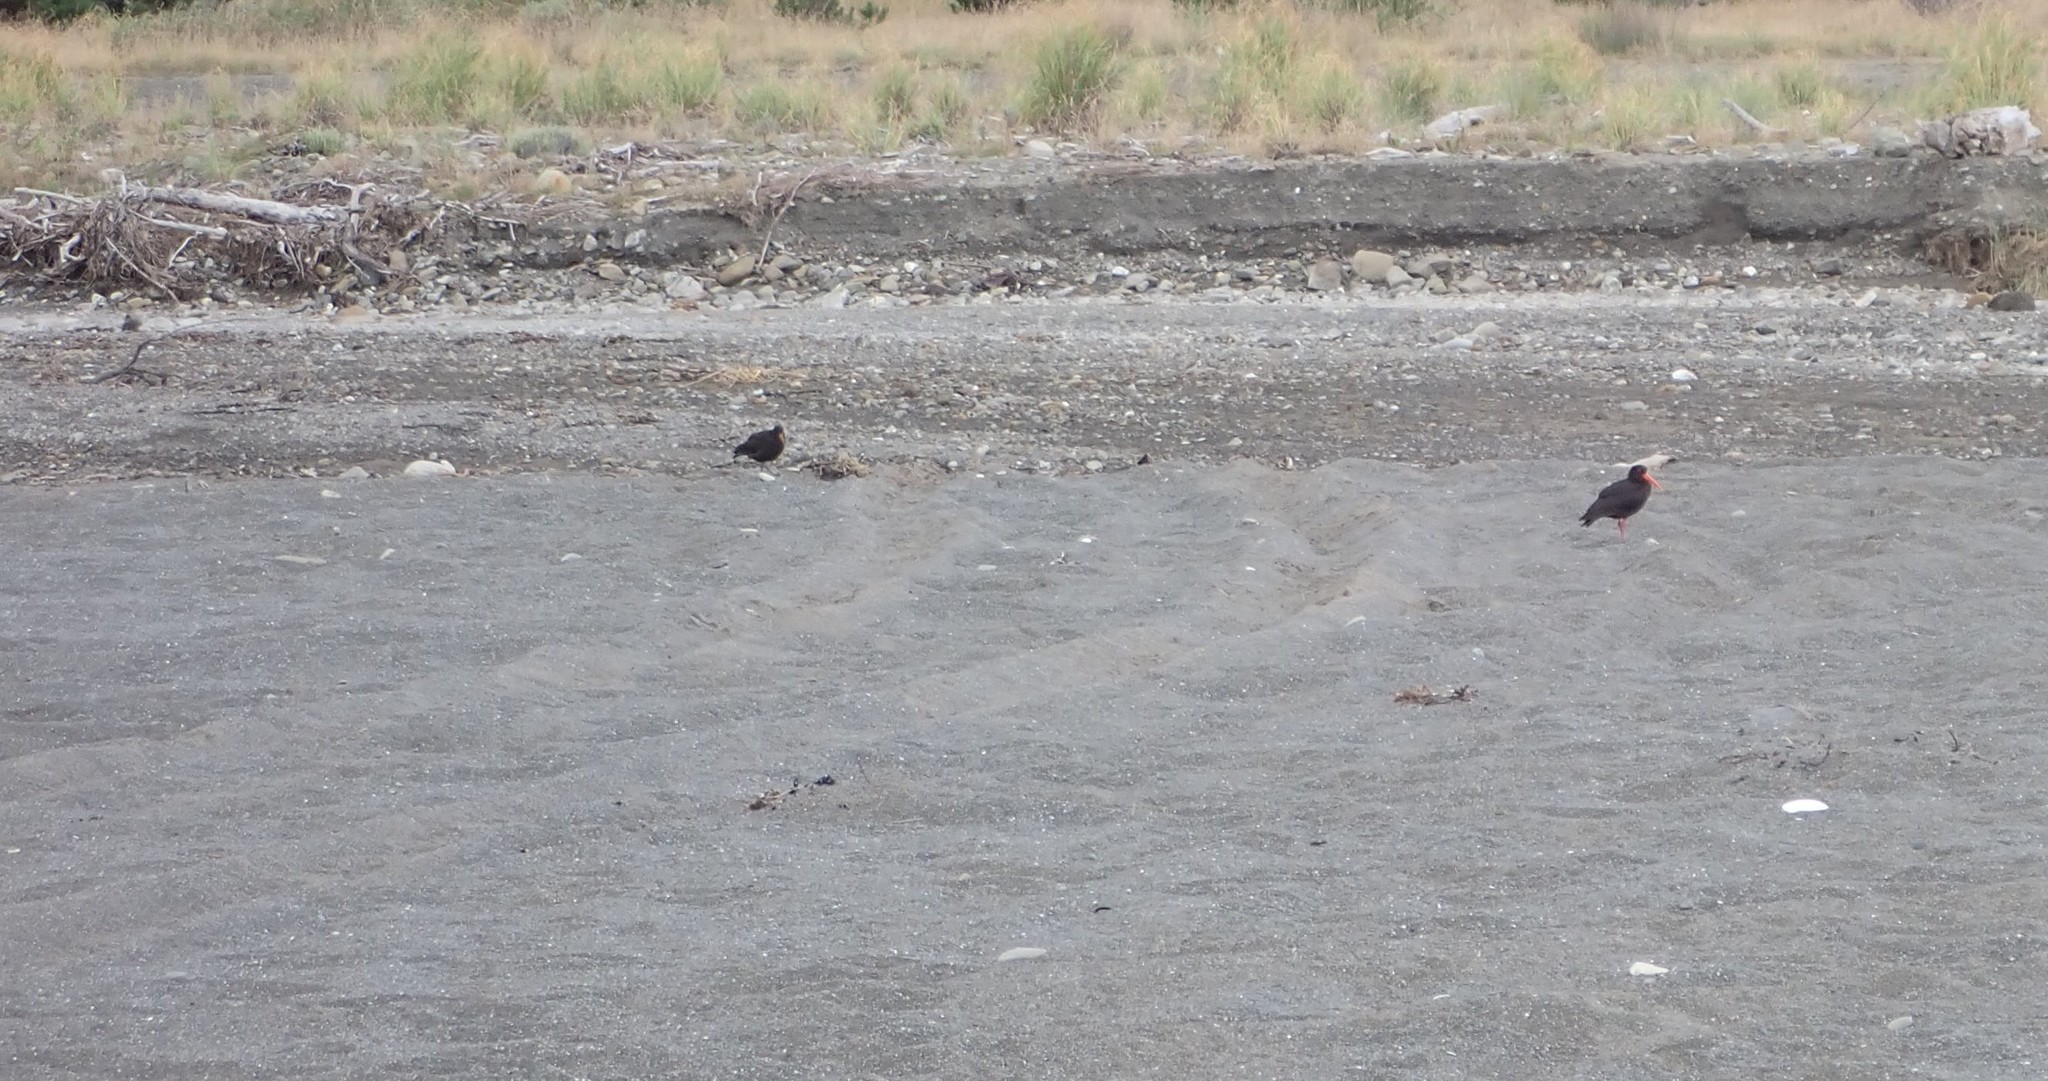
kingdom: Animalia
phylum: Chordata
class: Aves
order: Charadriiformes
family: Haematopodidae
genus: Haematopus
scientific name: Haematopus unicolor
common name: Variable oystercatcher
